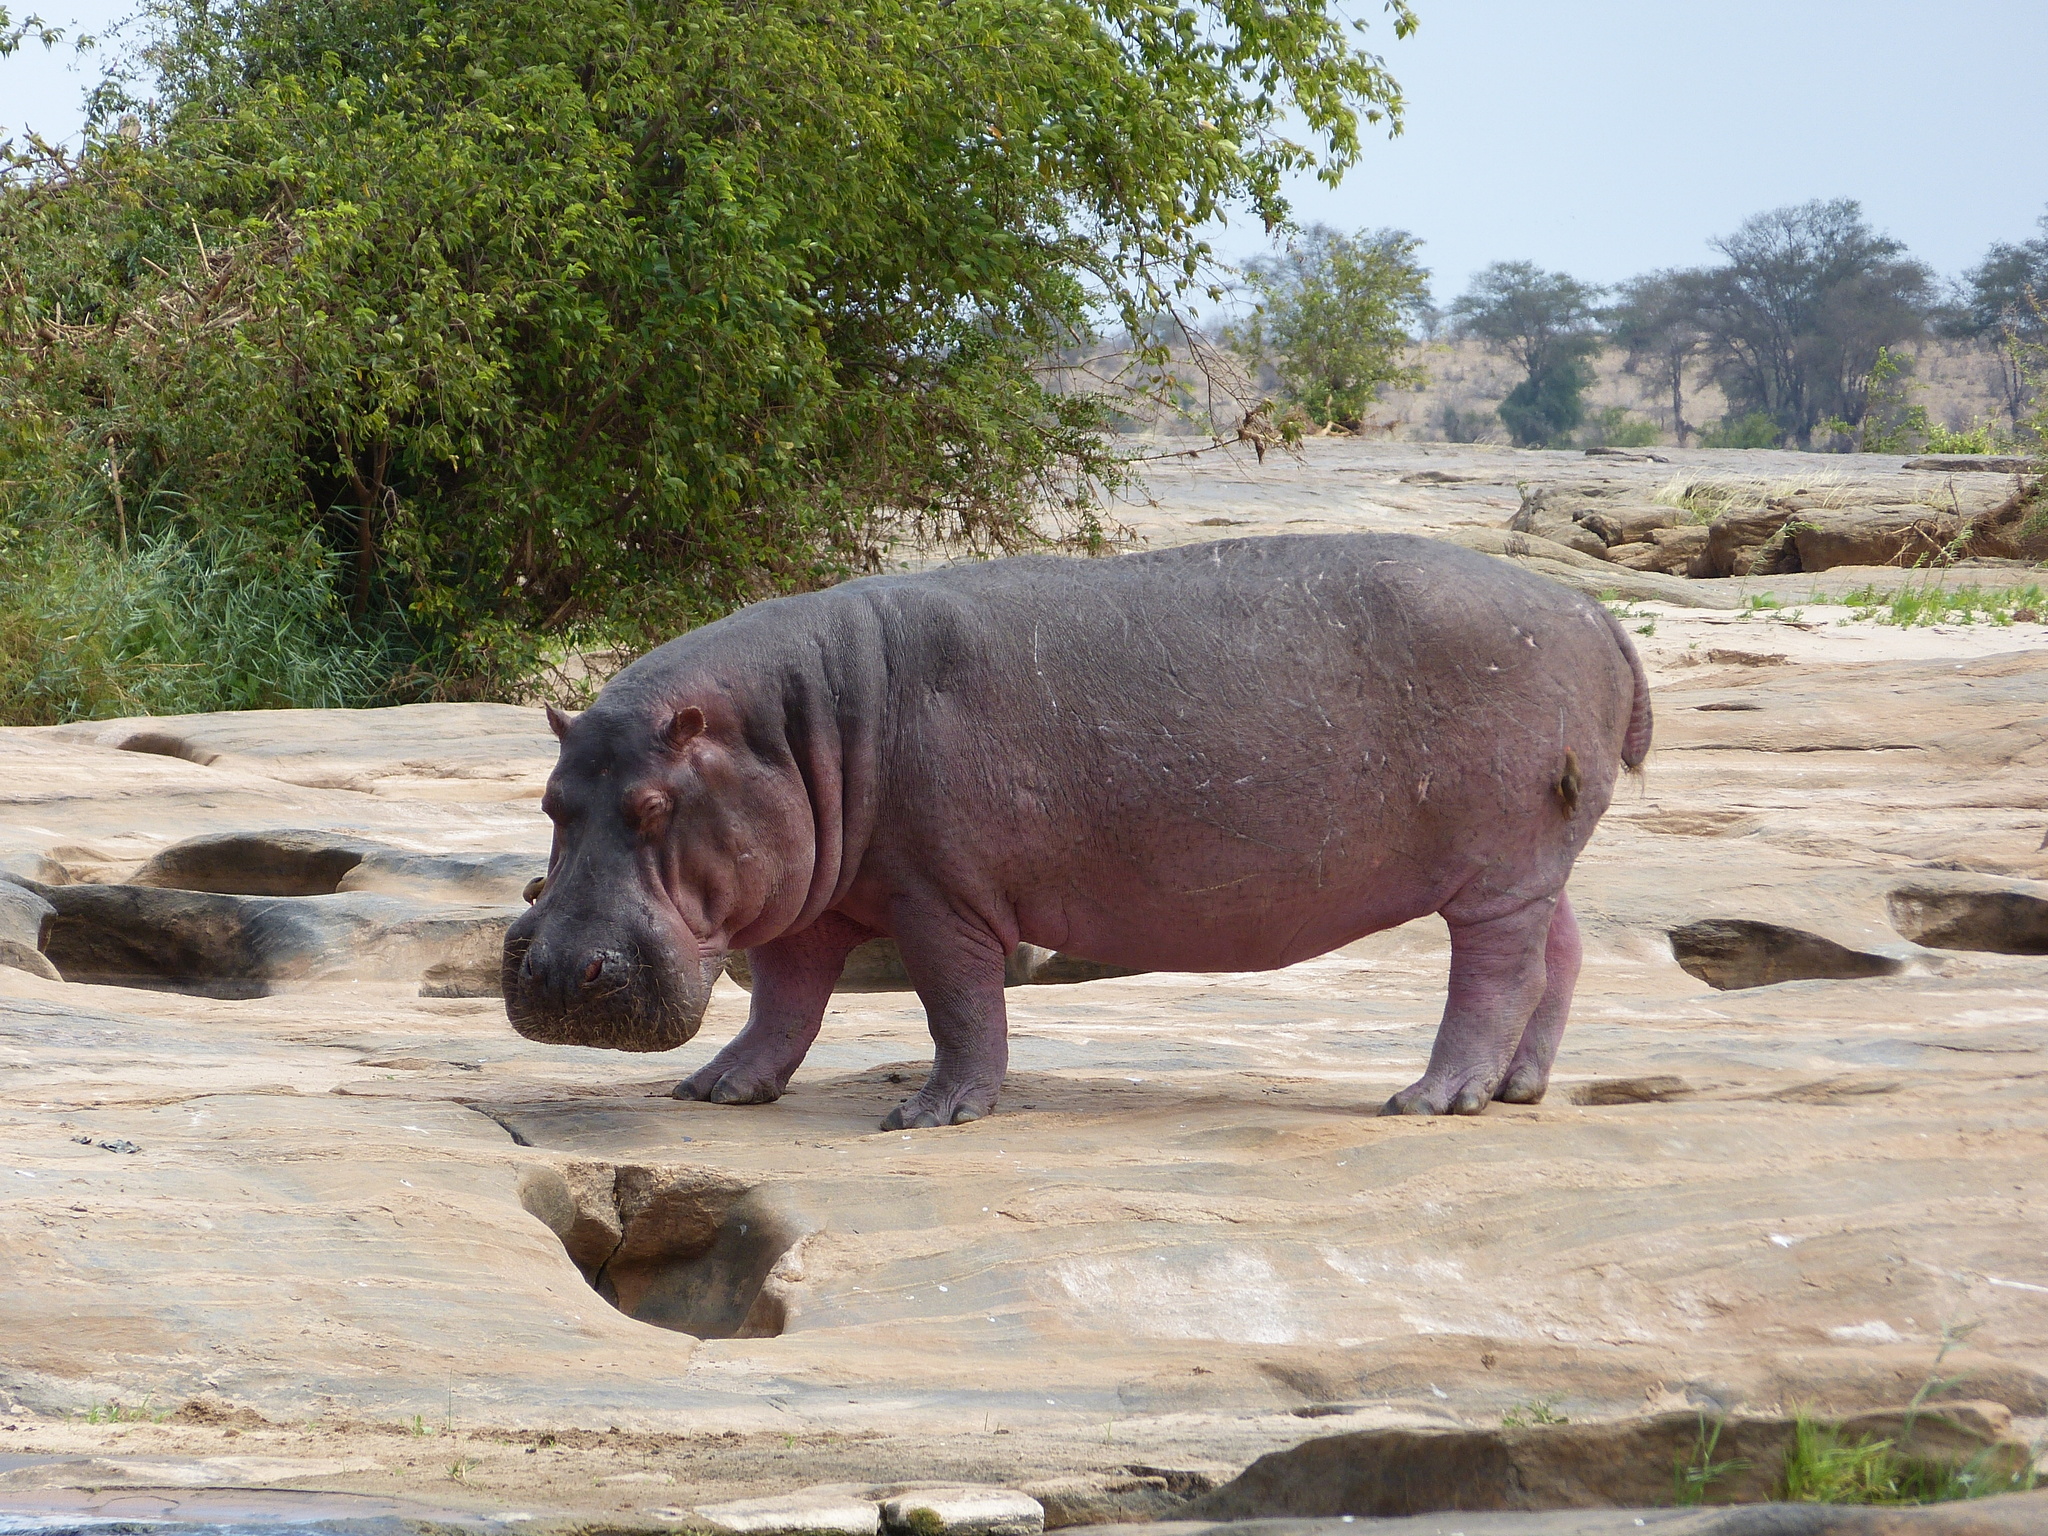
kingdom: Animalia
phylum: Chordata
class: Mammalia
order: Artiodactyla
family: Hippopotamidae
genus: Hippopotamus
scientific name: Hippopotamus amphibius
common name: Common hippopotamus
